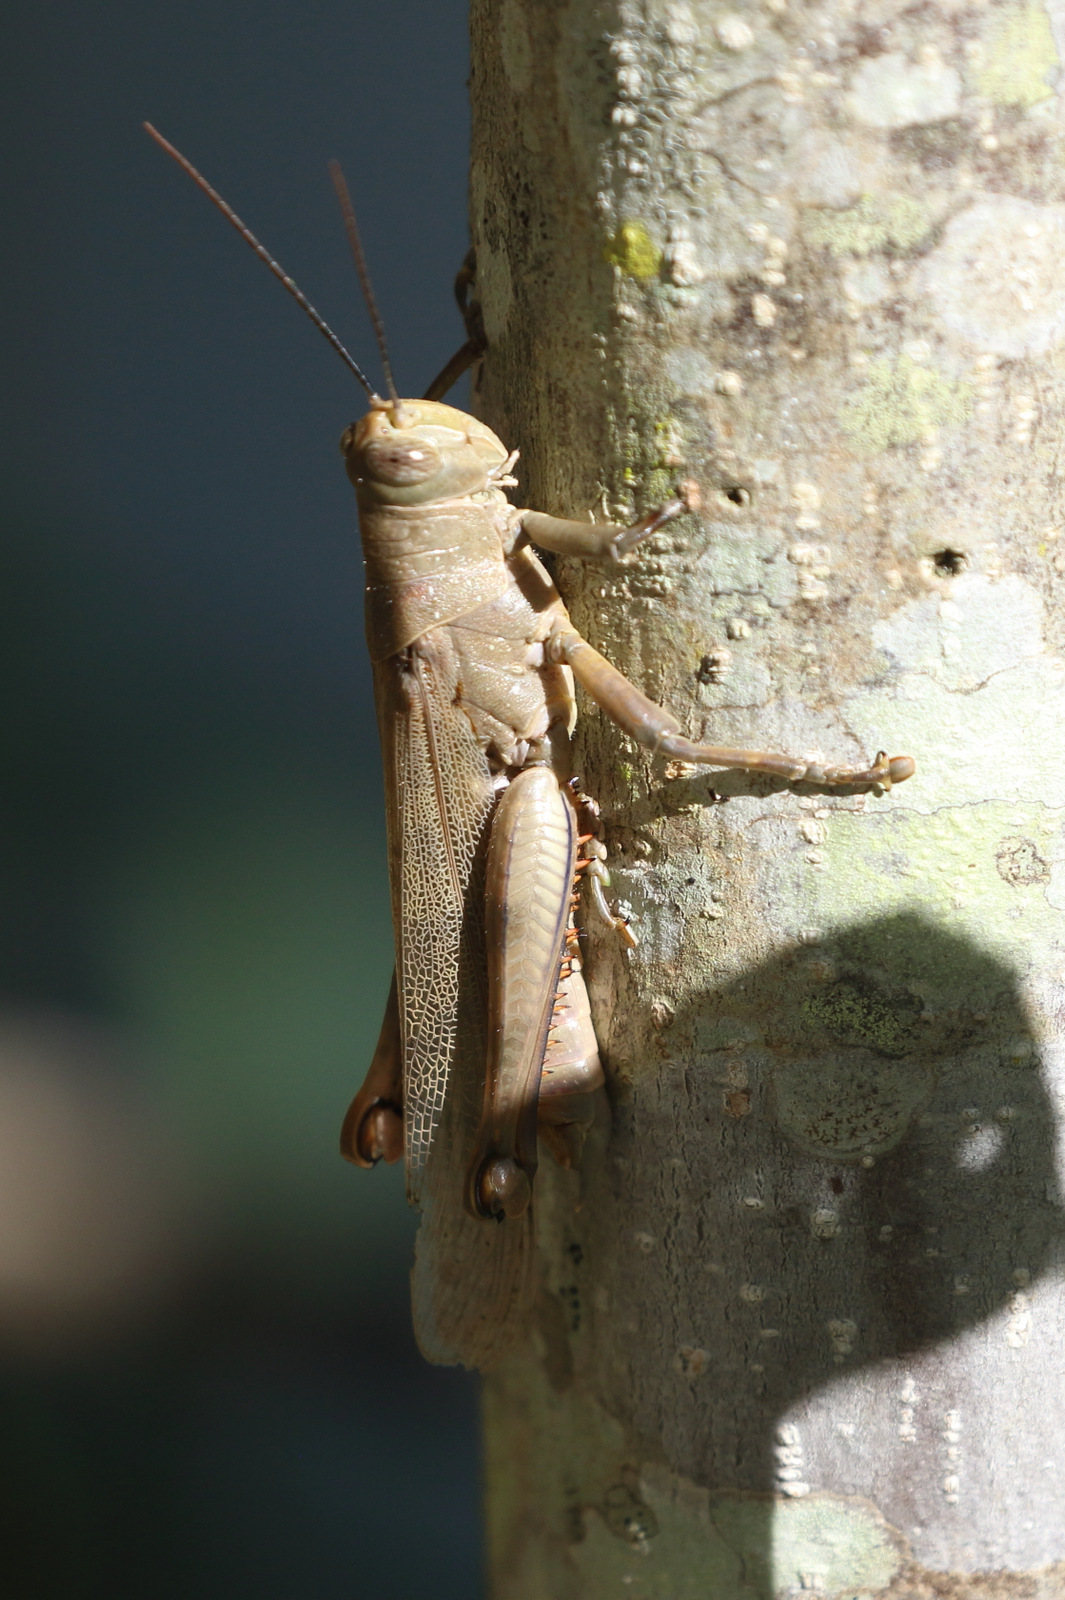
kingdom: Animalia
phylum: Arthropoda
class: Insecta
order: Orthoptera
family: Acrididae
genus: Valanga
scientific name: Valanga irregularis
